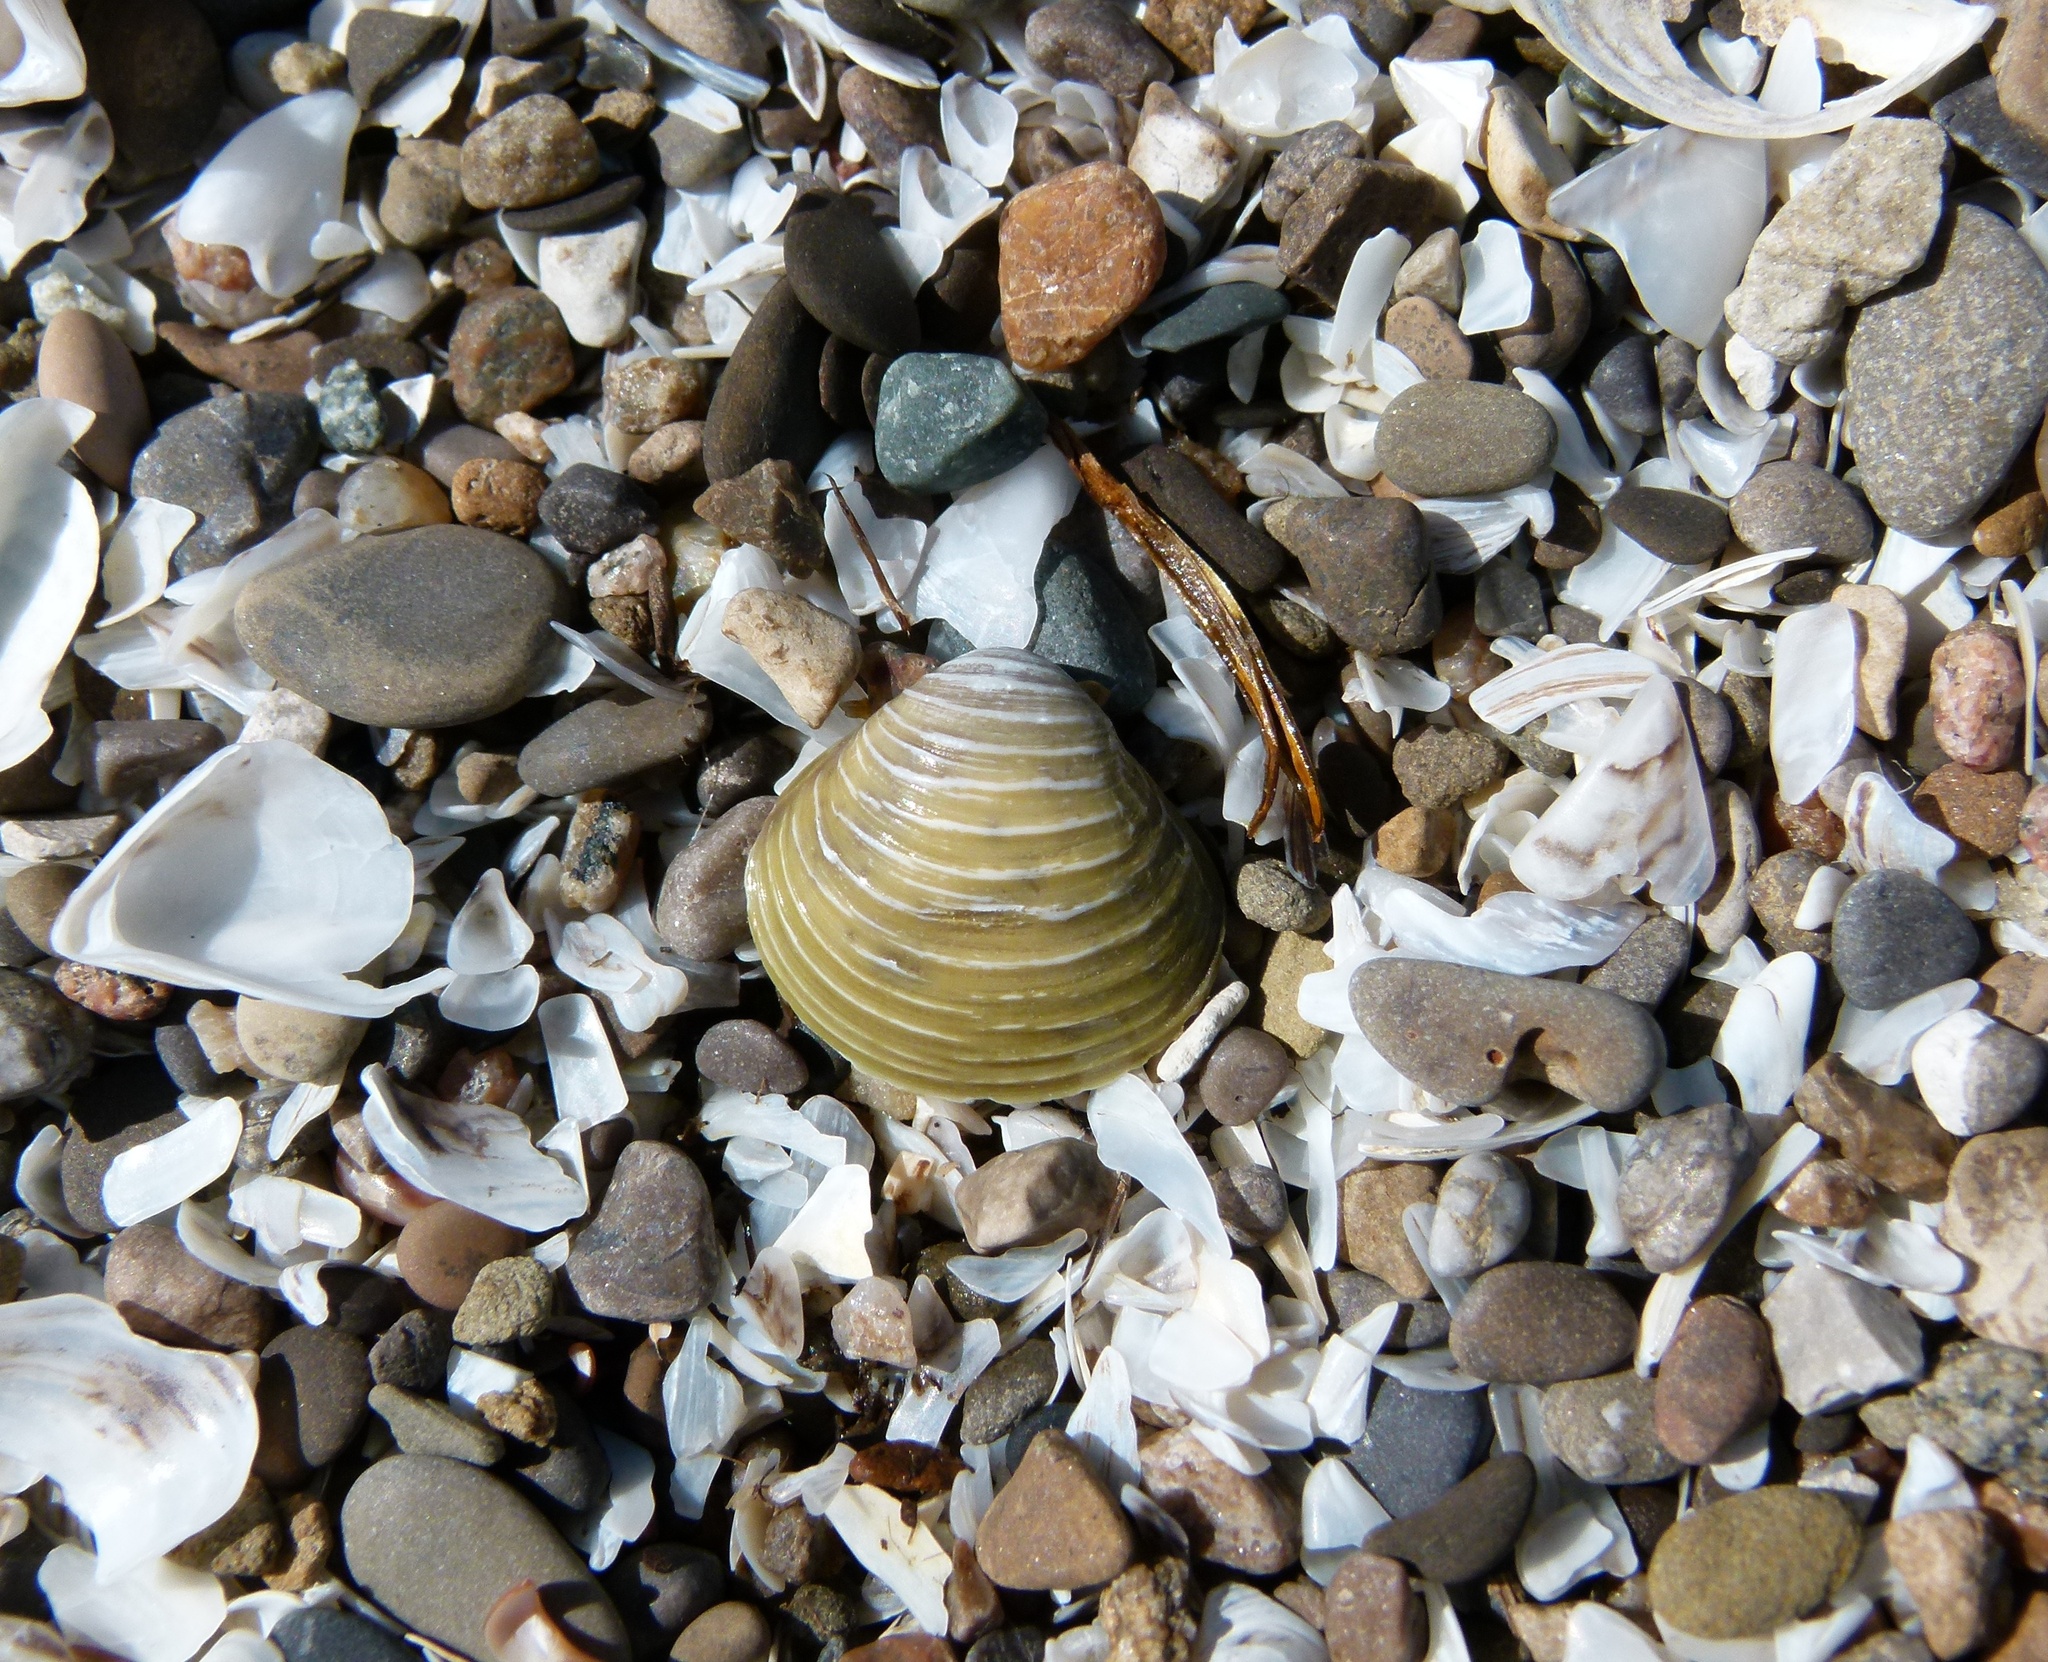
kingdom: Animalia
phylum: Mollusca
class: Bivalvia
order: Venerida
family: Cyrenidae
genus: Corbicula
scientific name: Corbicula fluminea
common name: Asian clam
